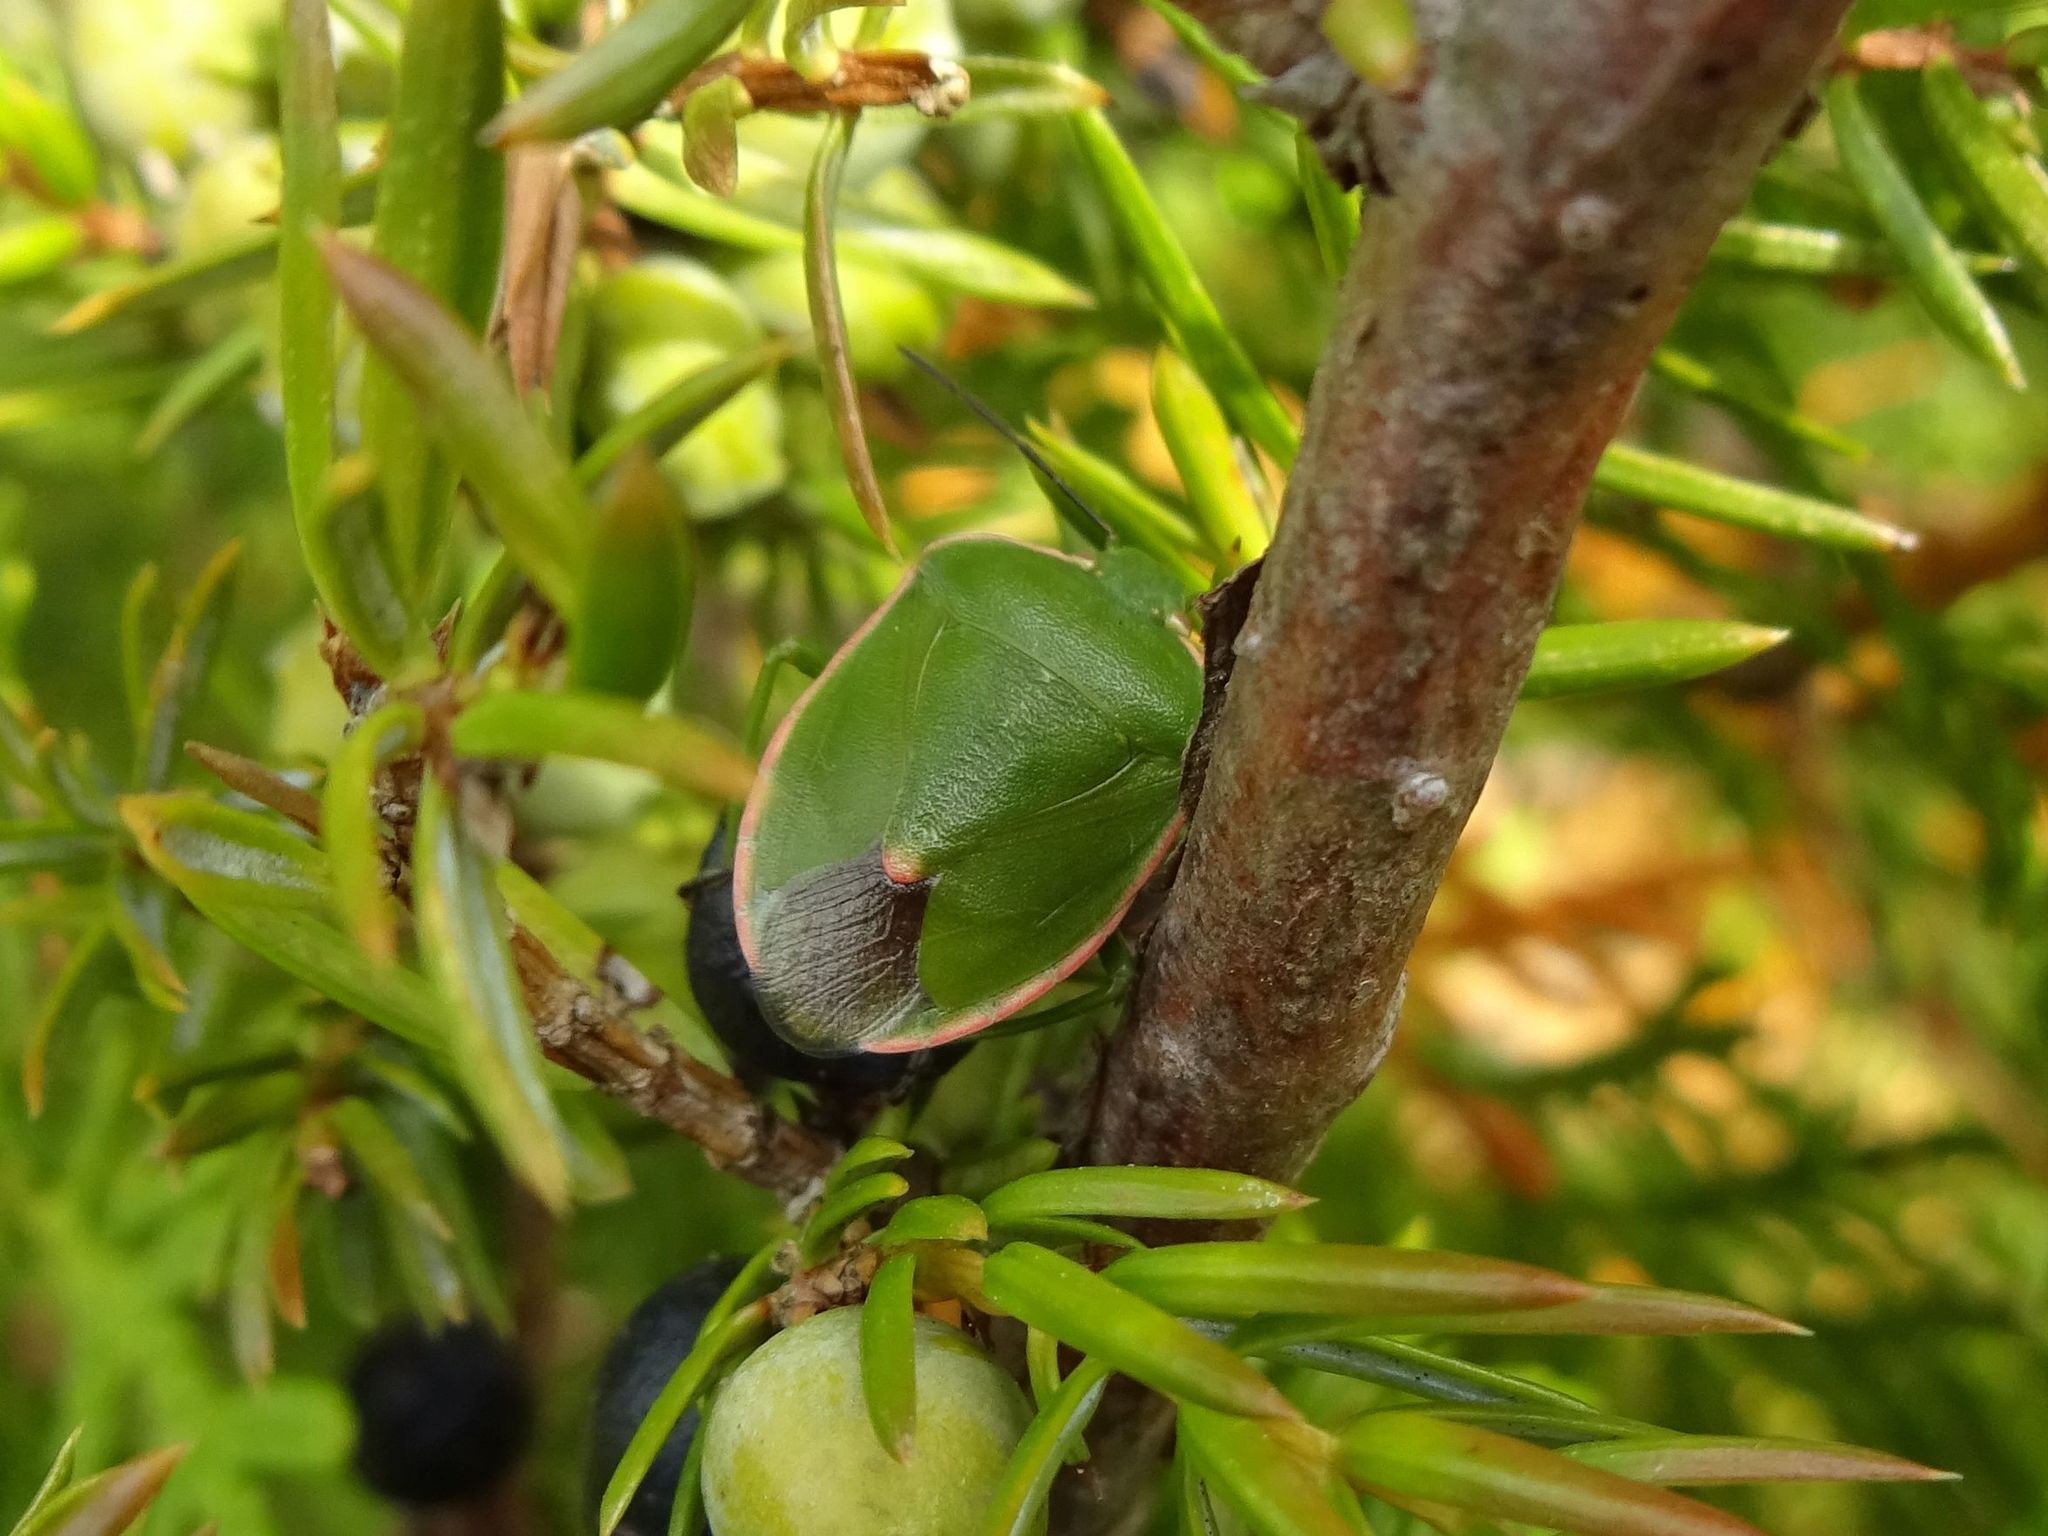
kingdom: Animalia
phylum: Arthropoda
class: Insecta
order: Hemiptera
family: Pentatomidae
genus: Chlorochroa
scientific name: Chlorochroa persimilis
